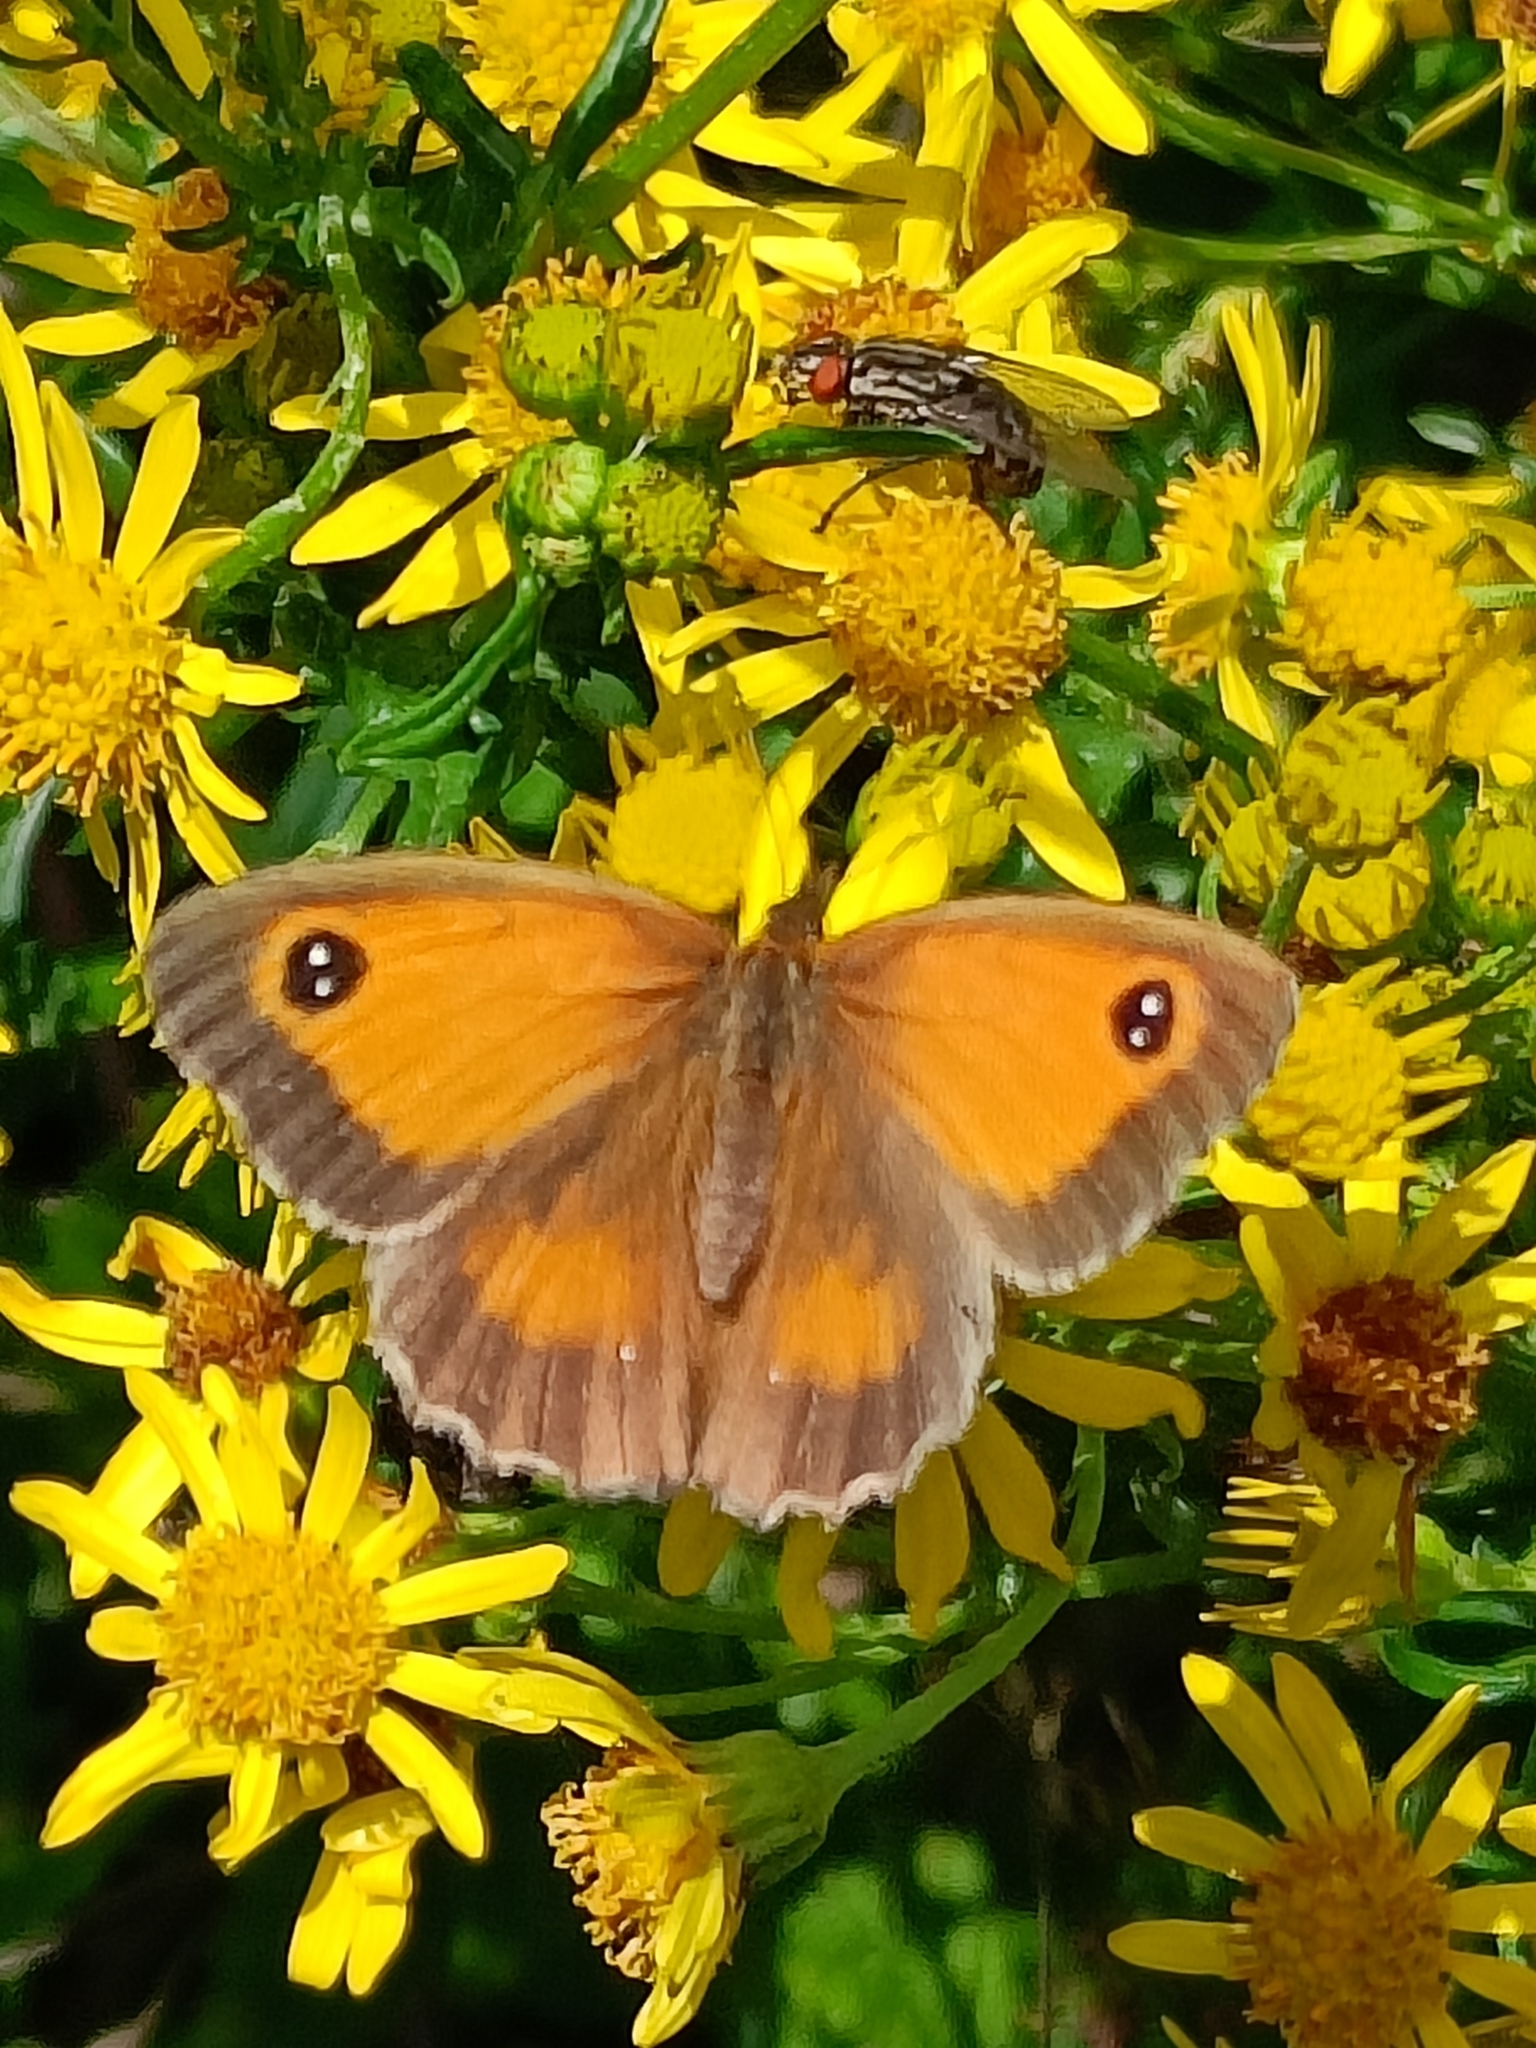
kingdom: Animalia
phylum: Arthropoda
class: Insecta
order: Lepidoptera
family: Nymphalidae
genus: Pyronia
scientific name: Pyronia tithonus
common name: Gatekeeper
